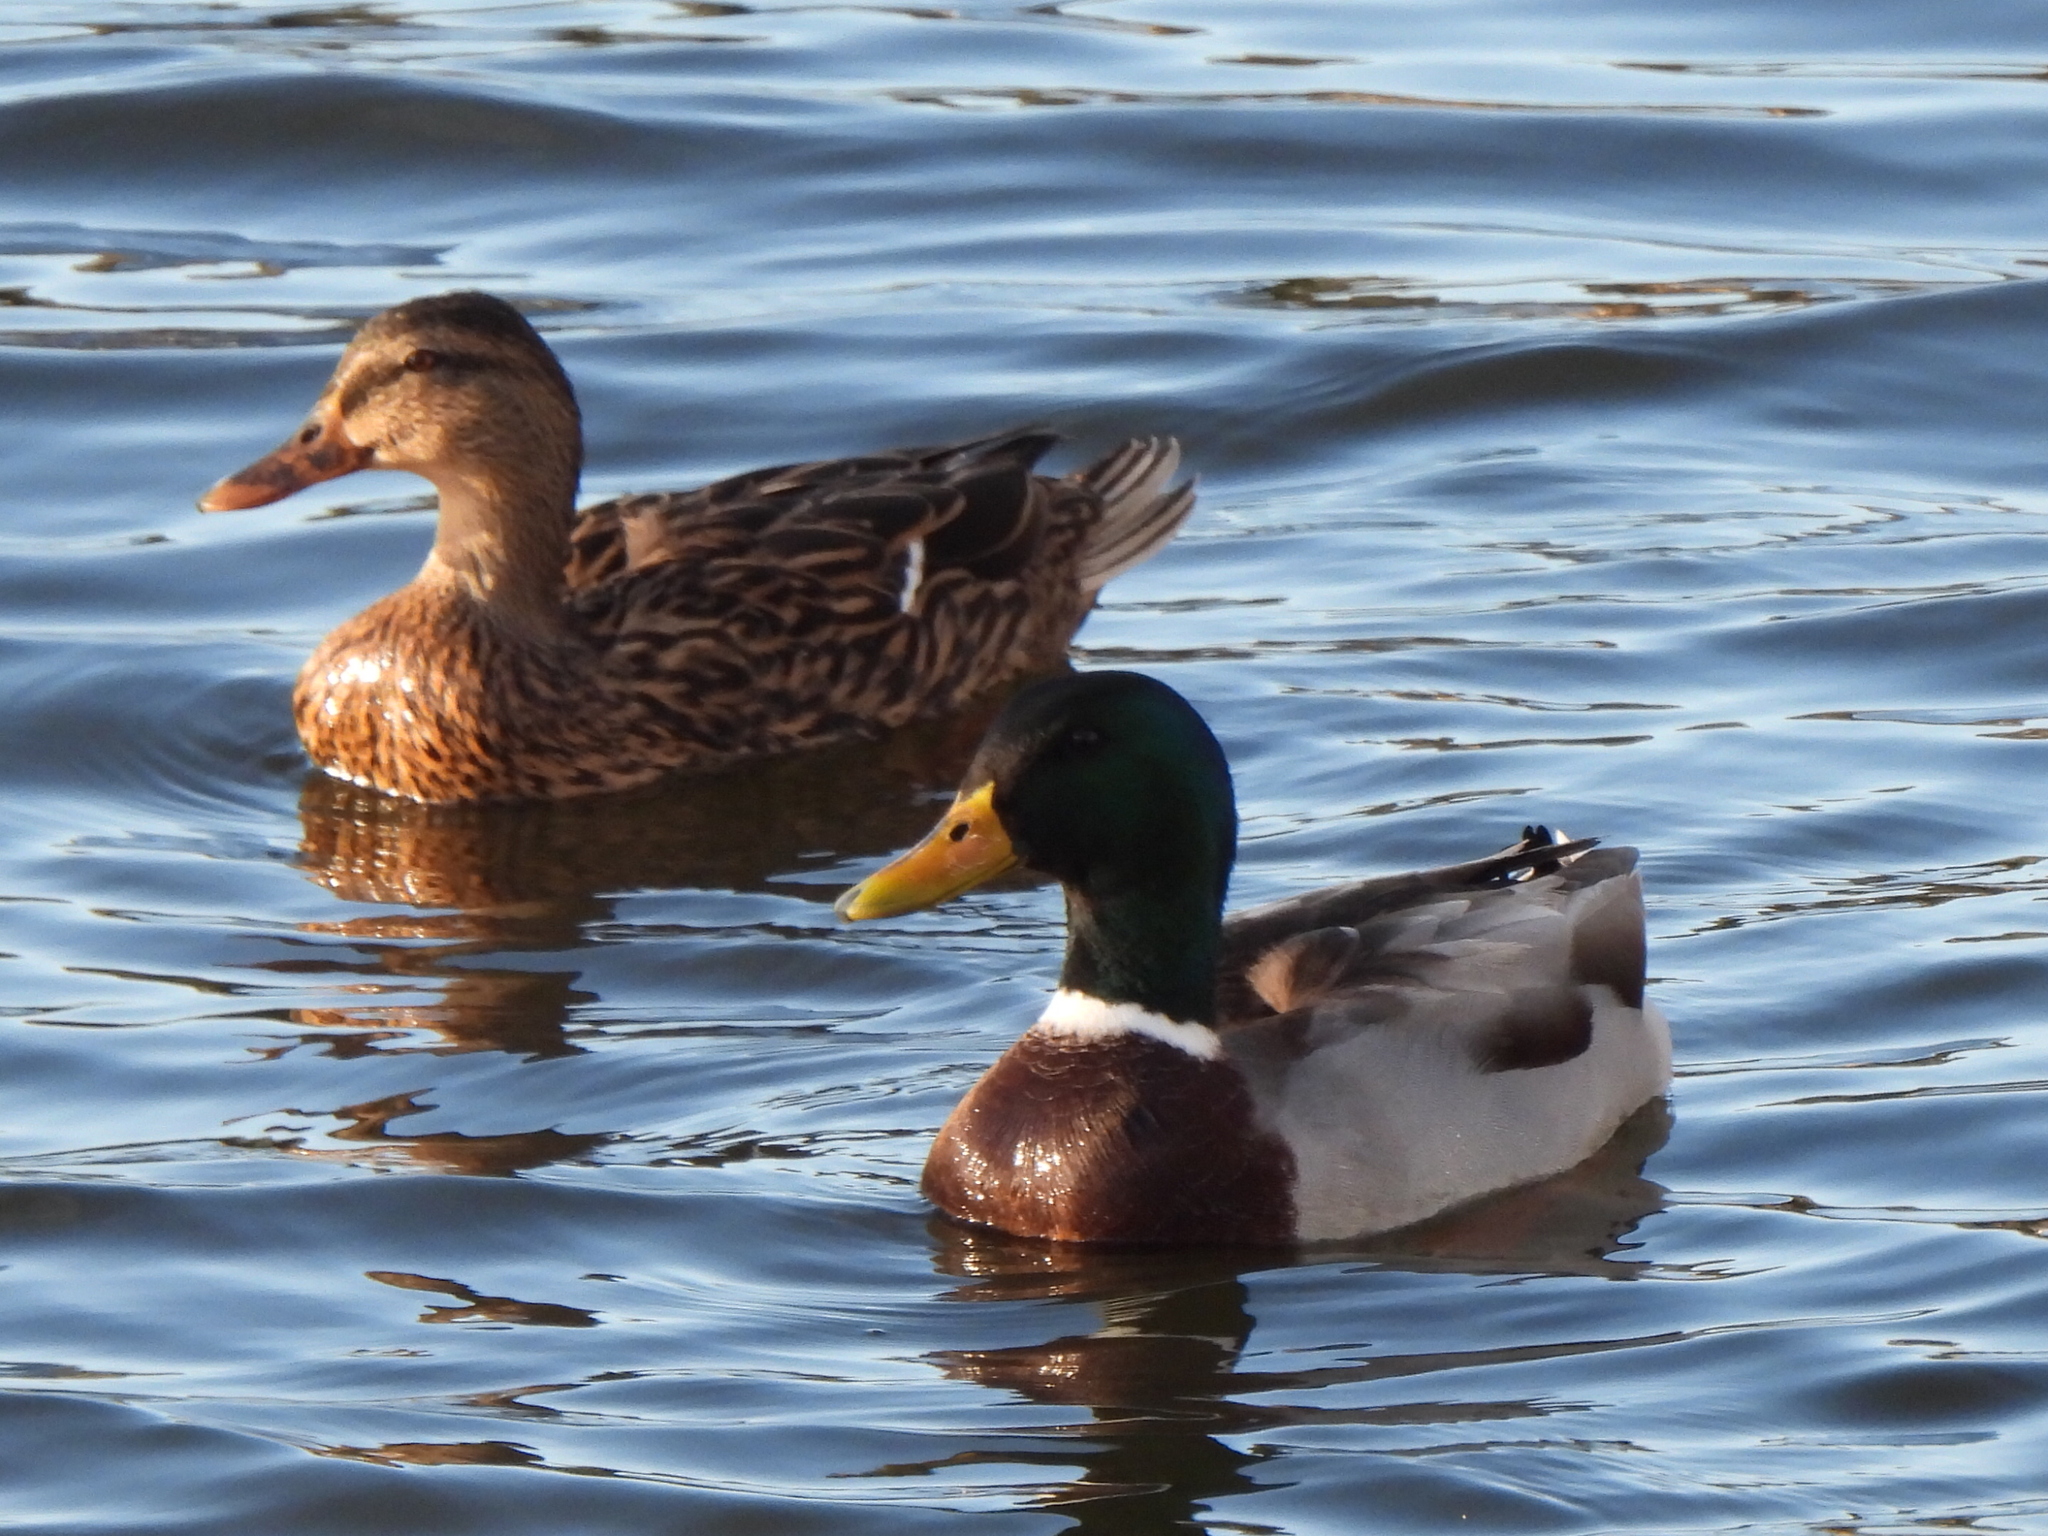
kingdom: Animalia
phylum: Chordata
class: Aves
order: Anseriformes
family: Anatidae
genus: Anas
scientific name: Anas platyrhynchos
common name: Mallard
